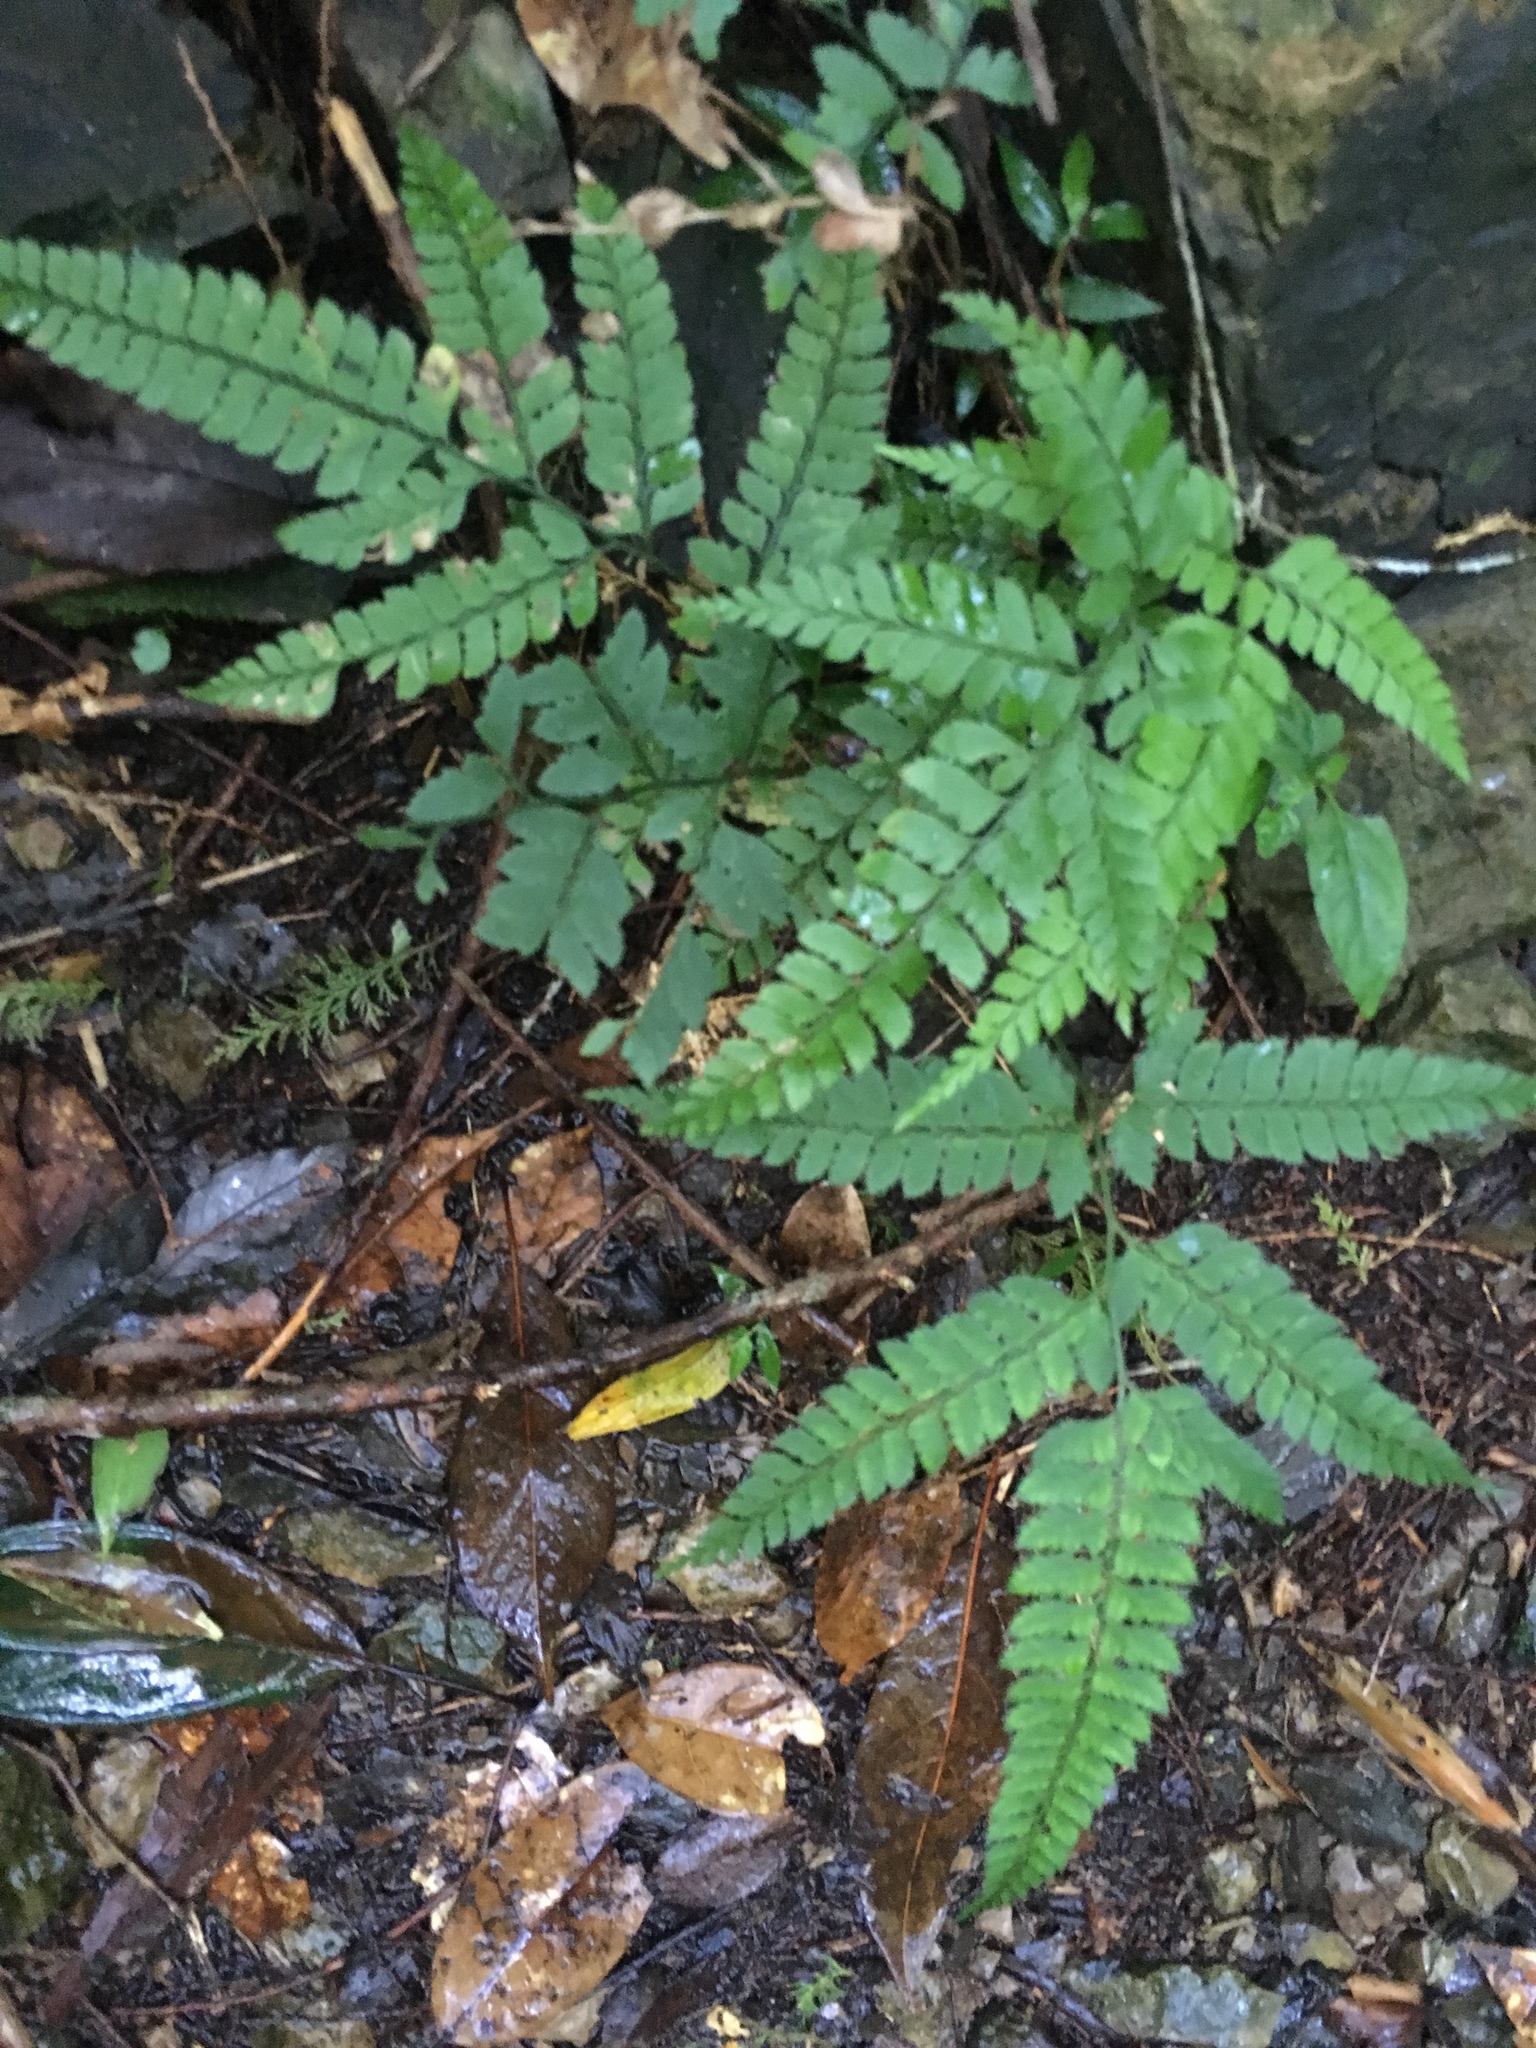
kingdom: Plantae
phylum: Tracheophyta
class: Polypodiopsida
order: Polypodiales
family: Dryopteridaceae
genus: Arachniodes
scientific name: Arachniodes rhomboidea
